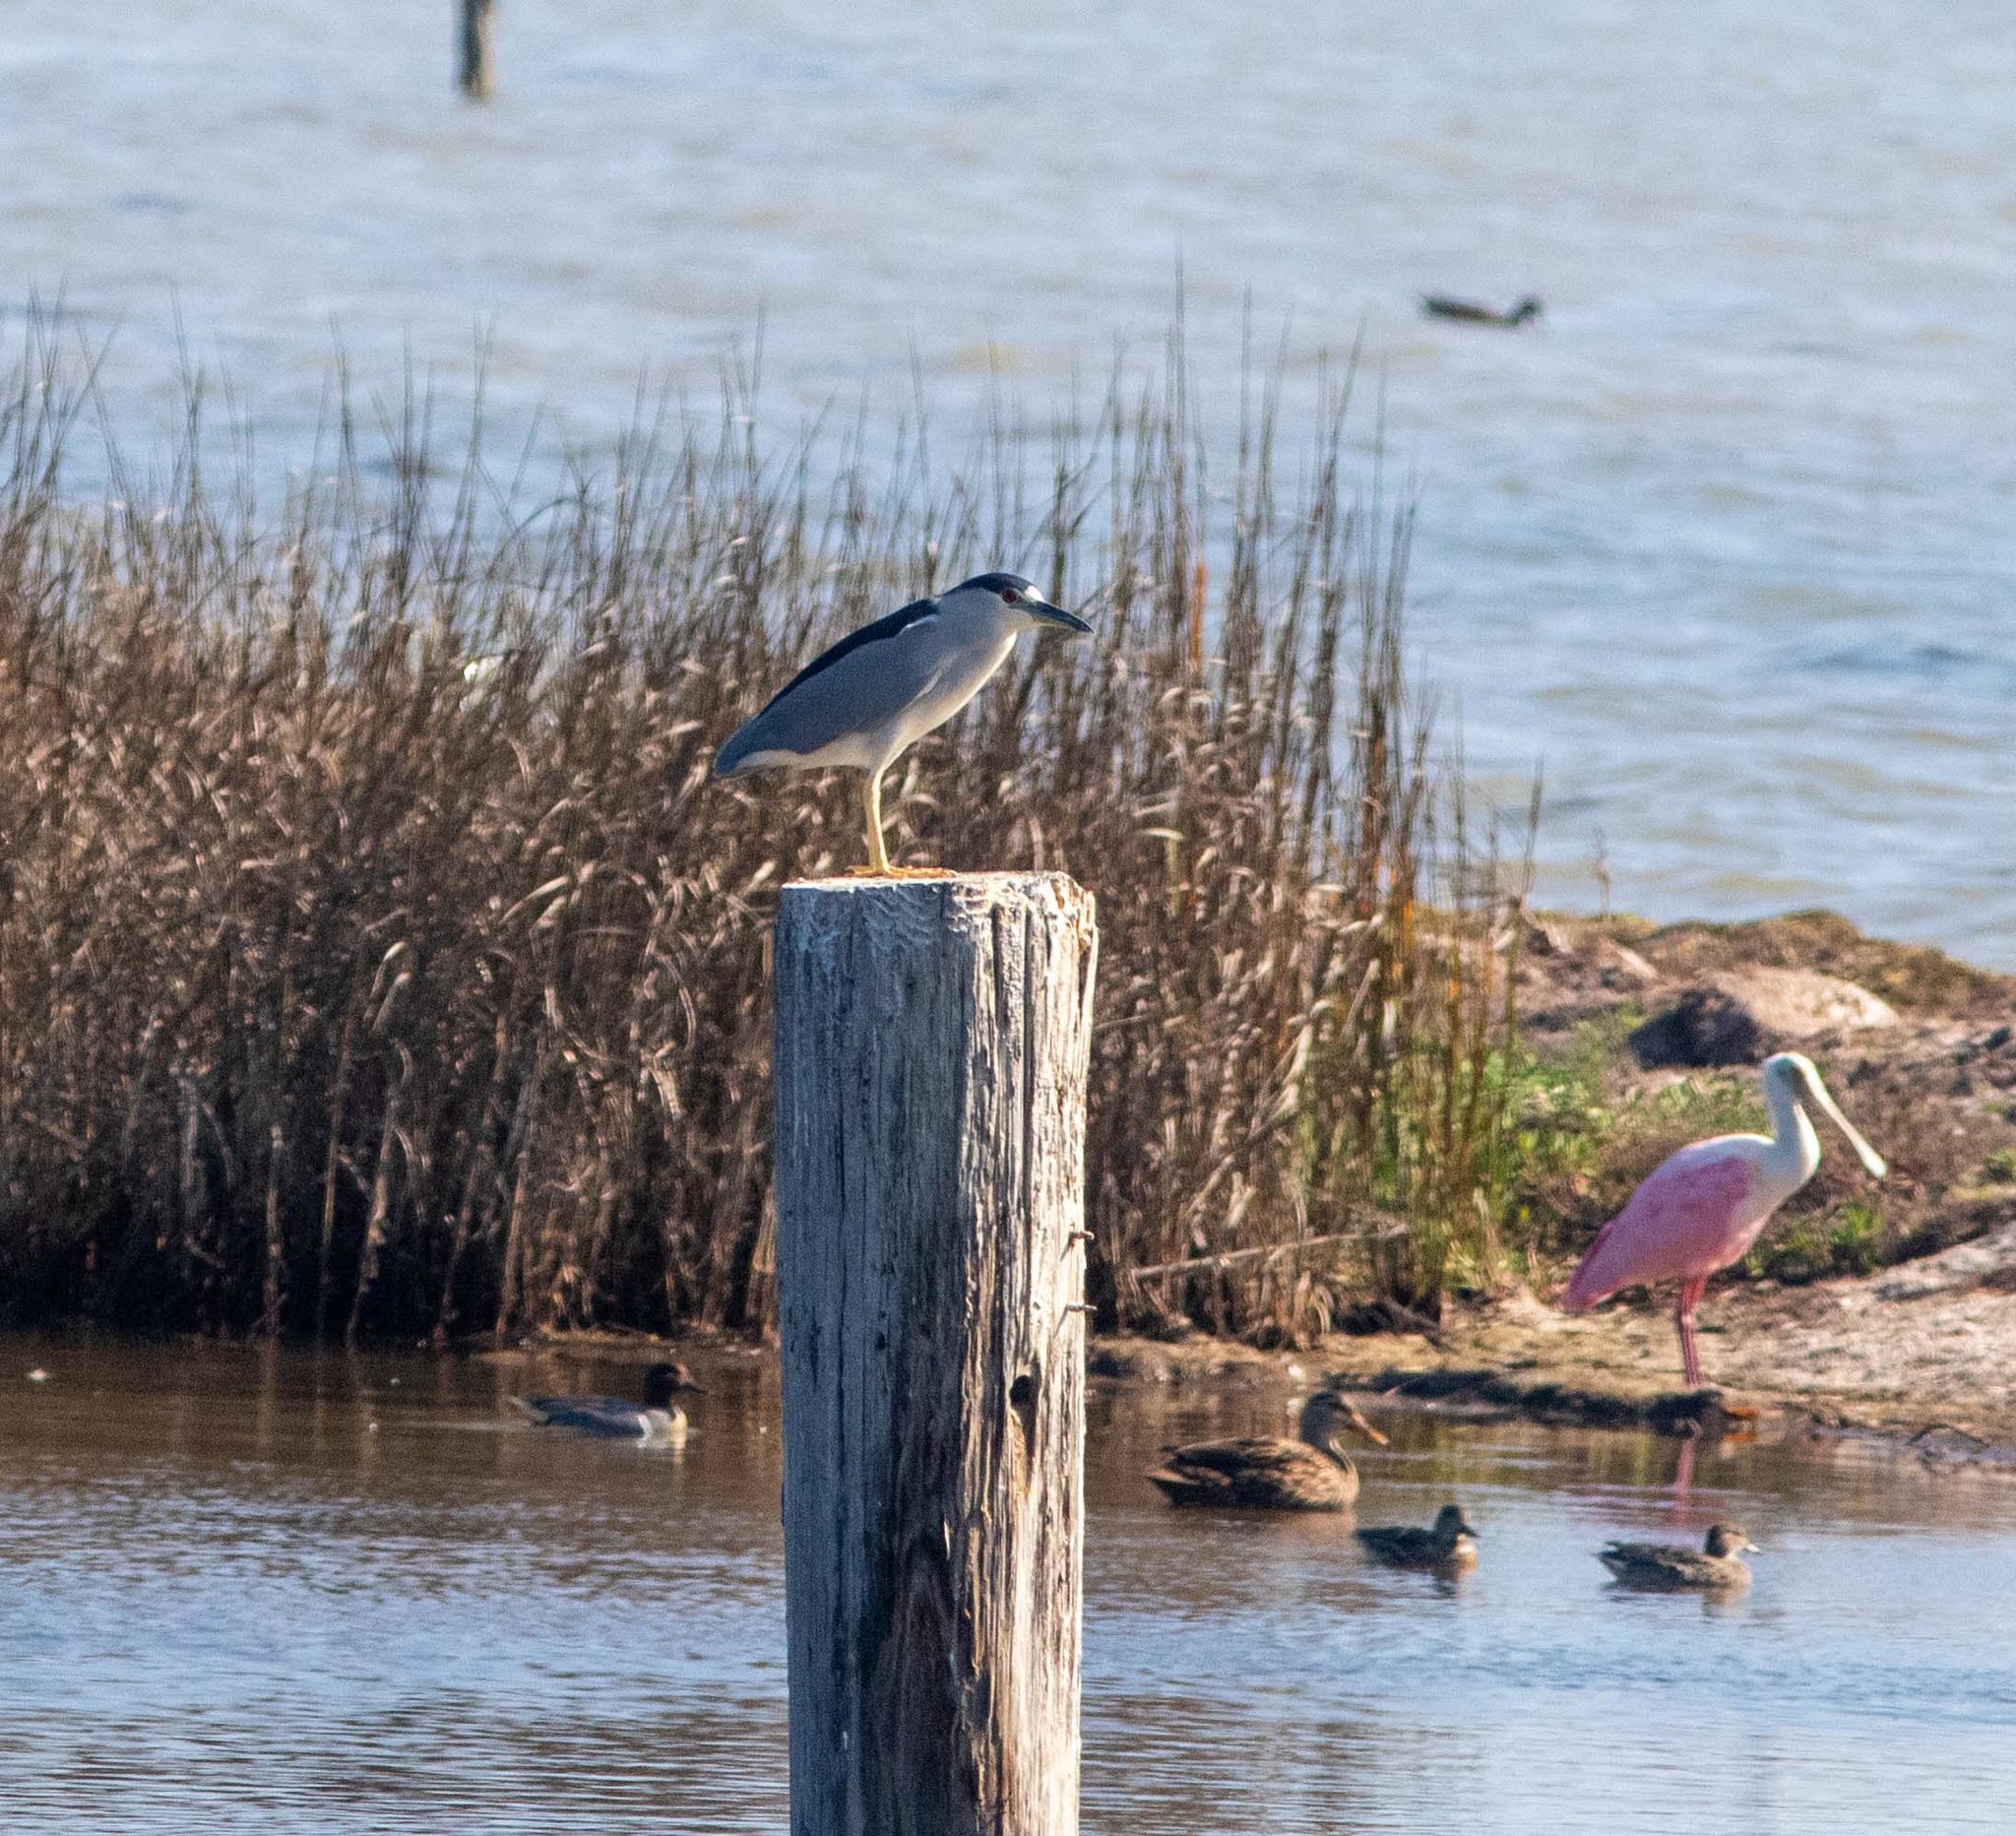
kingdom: Animalia
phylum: Chordata
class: Aves
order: Pelecaniformes
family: Ardeidae
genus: Nycticorax
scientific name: Nycticorax nycticorax
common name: Black-crowned night heron
